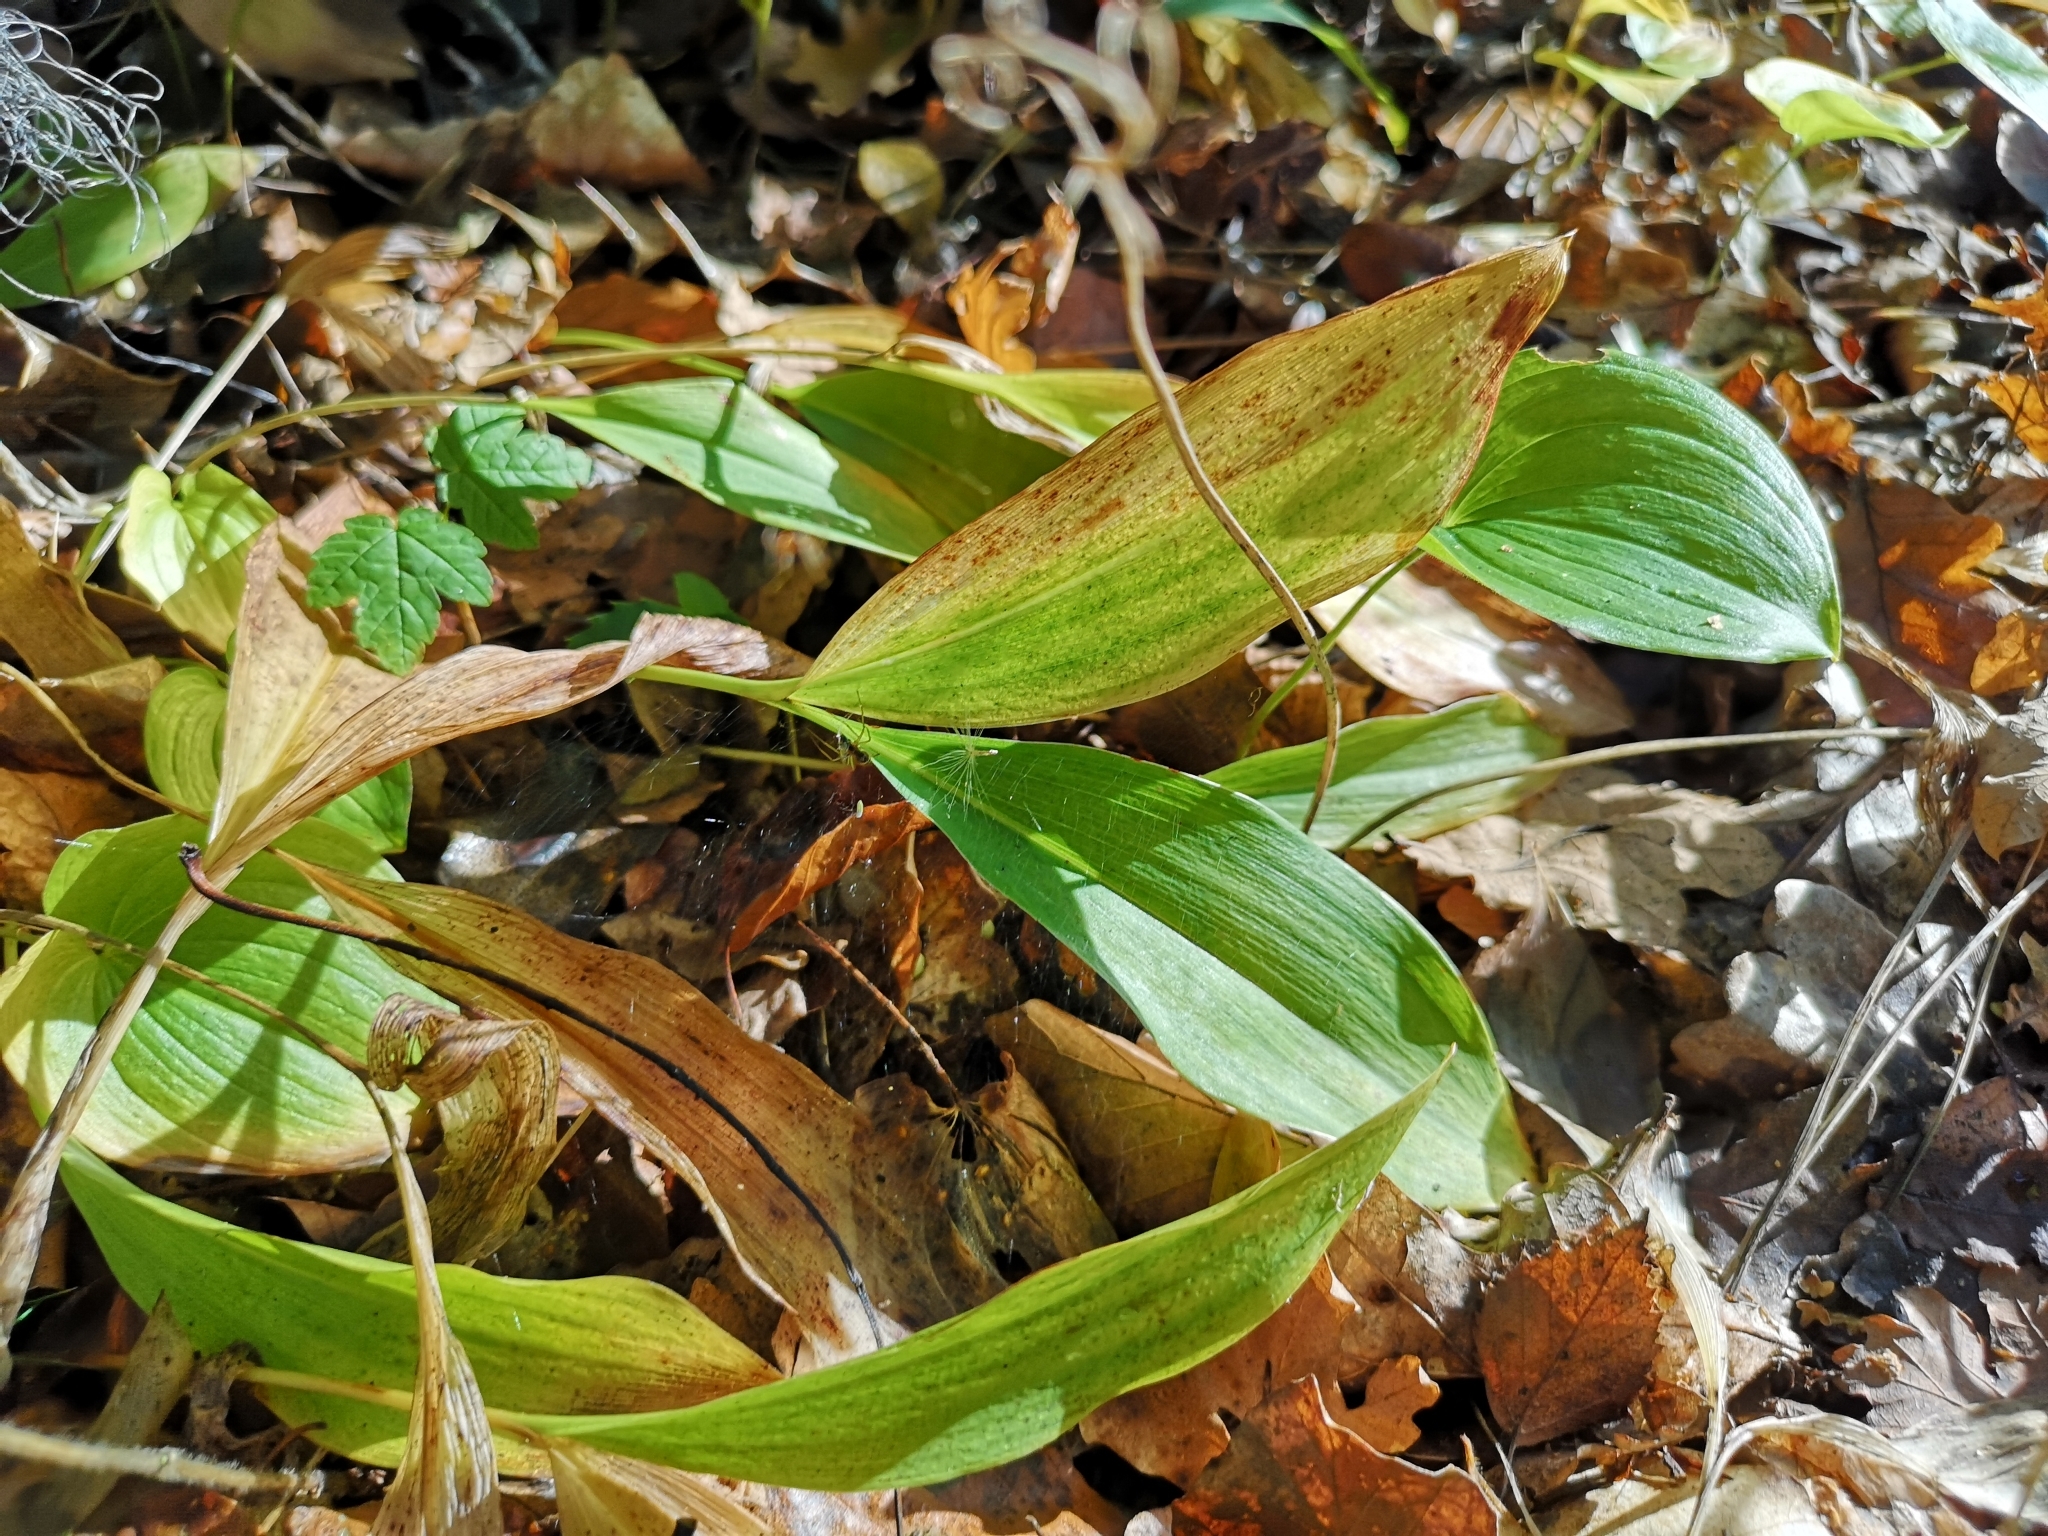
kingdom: Plantae
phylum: Tracheophyta
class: Liliopsida
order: Asparagales
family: Asparagaceae
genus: Convallaria
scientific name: Convallaria majalis
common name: Lily-of-the-valley
